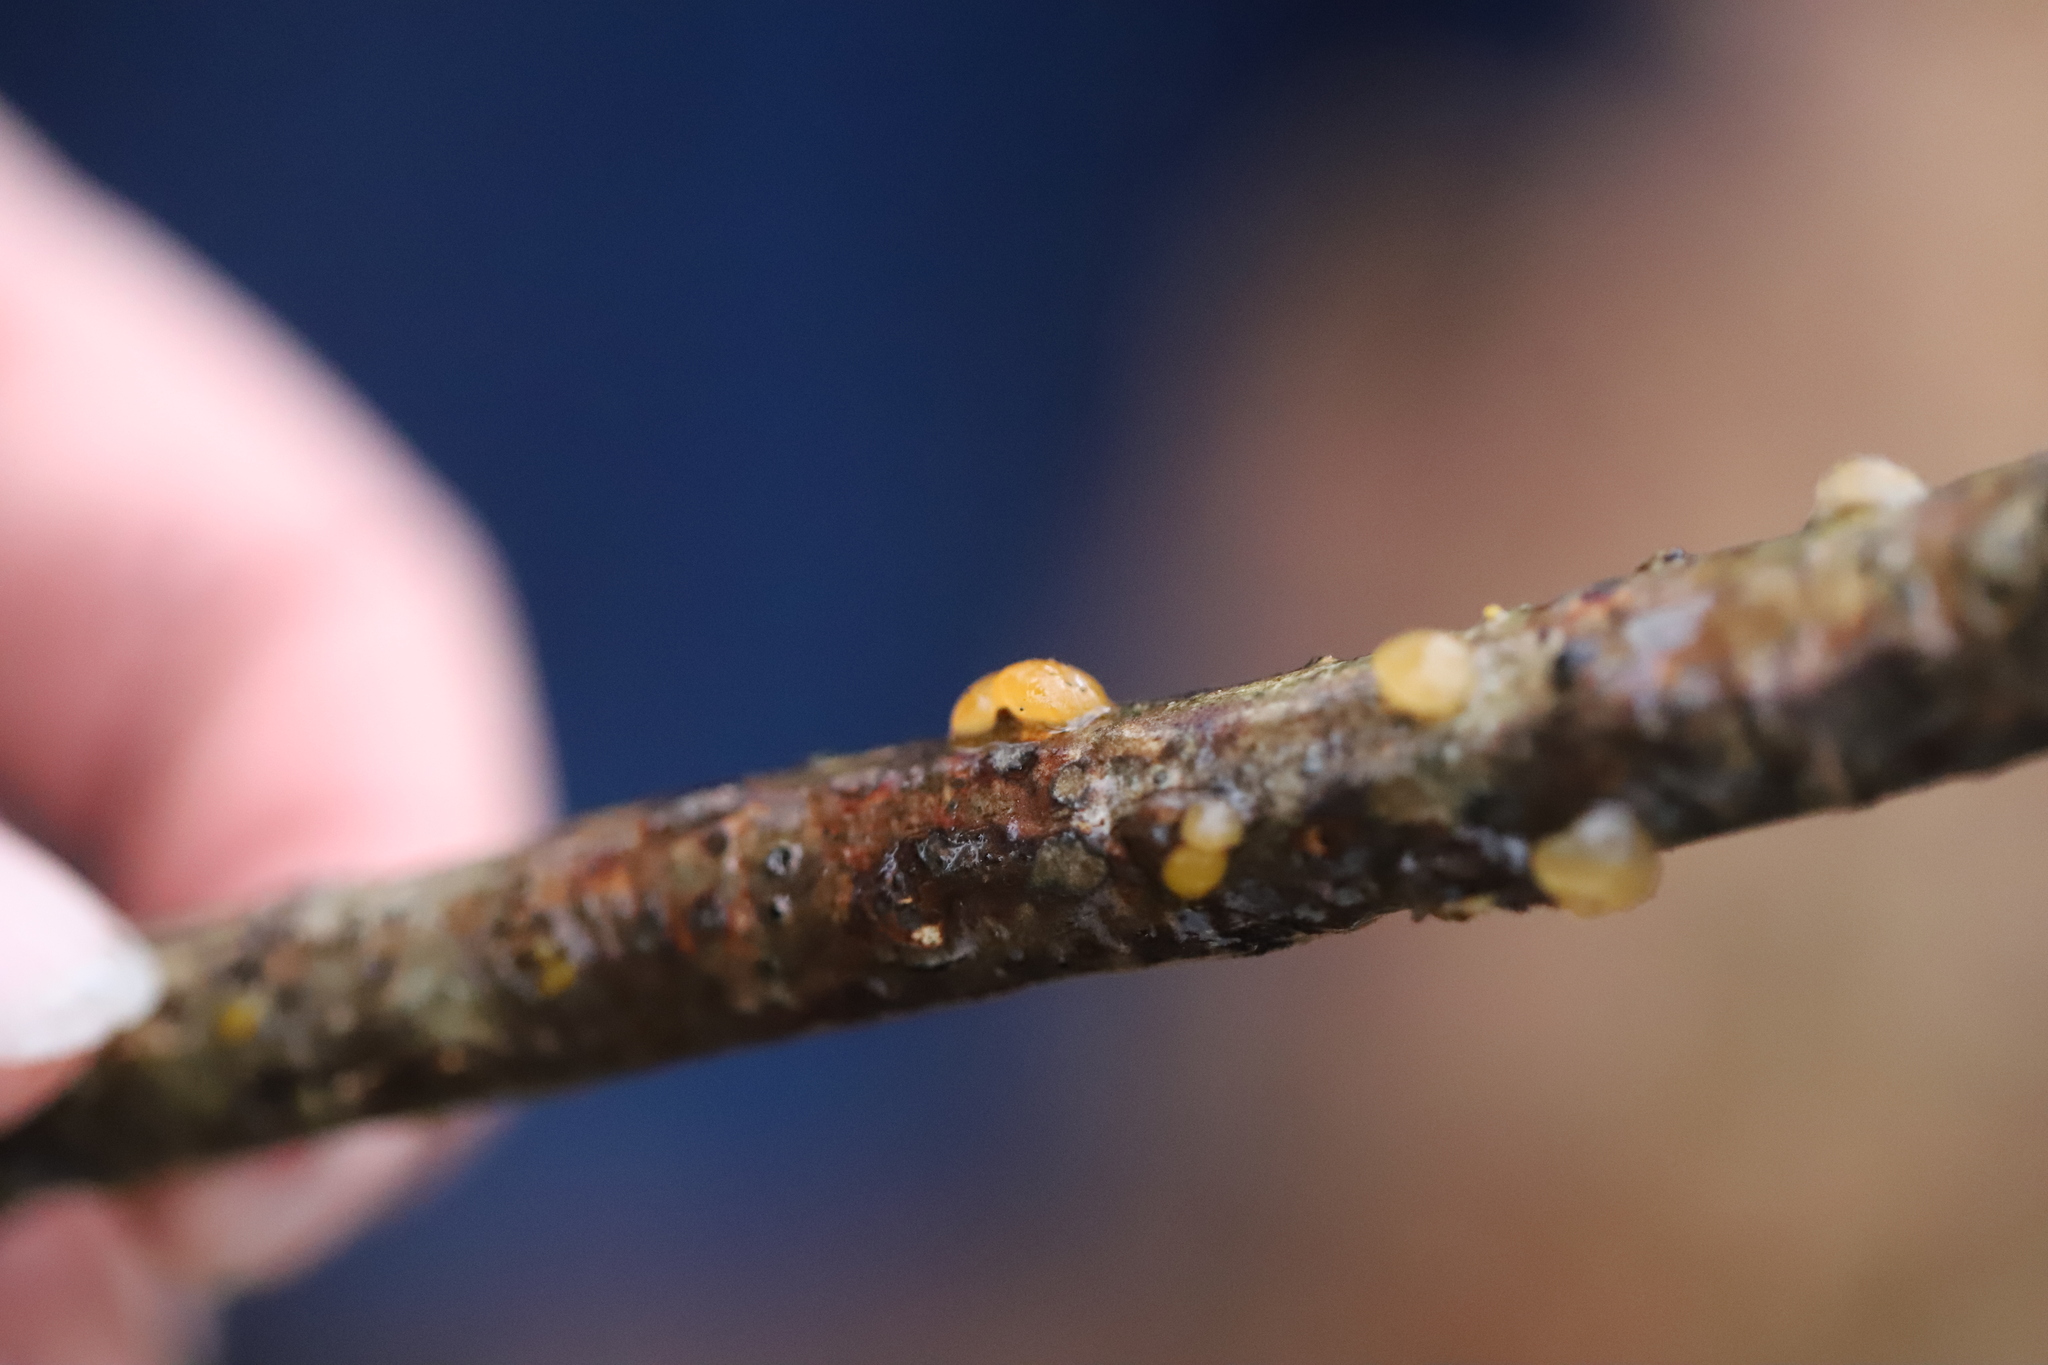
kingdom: Fungi
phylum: Basidiomycota
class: Dacrymycetes
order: Dacrymycetales
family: Dacrymycetaceae
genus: Dacrymyces
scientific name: Dacrymyces stillatus
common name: Common jelly spot
